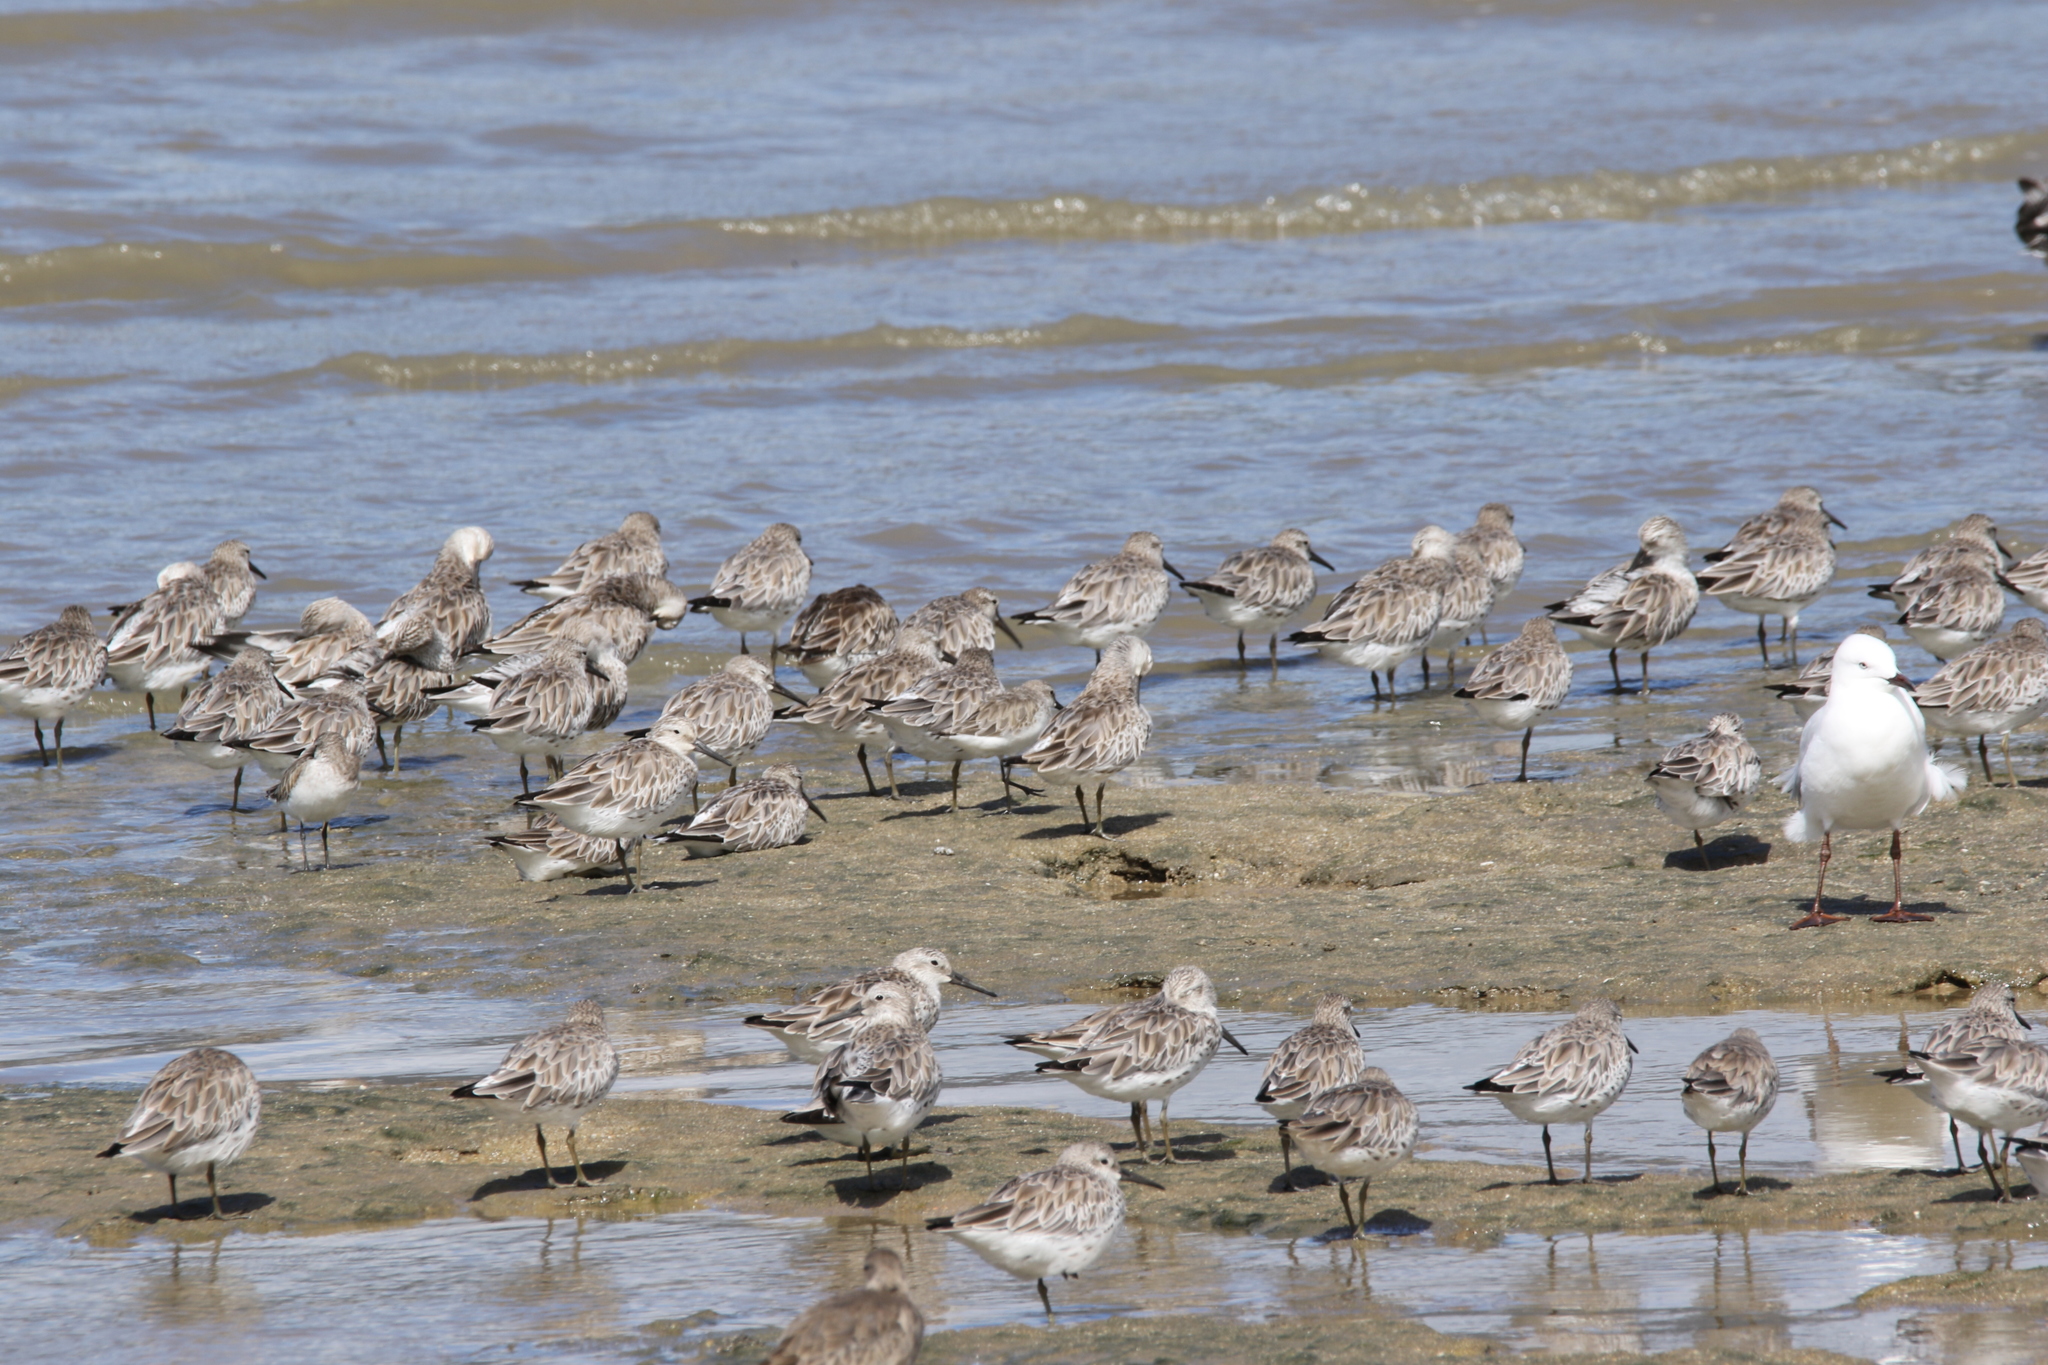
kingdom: Animalia
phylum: Chordata
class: Aves
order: Charadriiformes
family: Laridae
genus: Chroicocephalus
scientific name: Chroicocephalus novaehollandiae
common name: Silver gull
